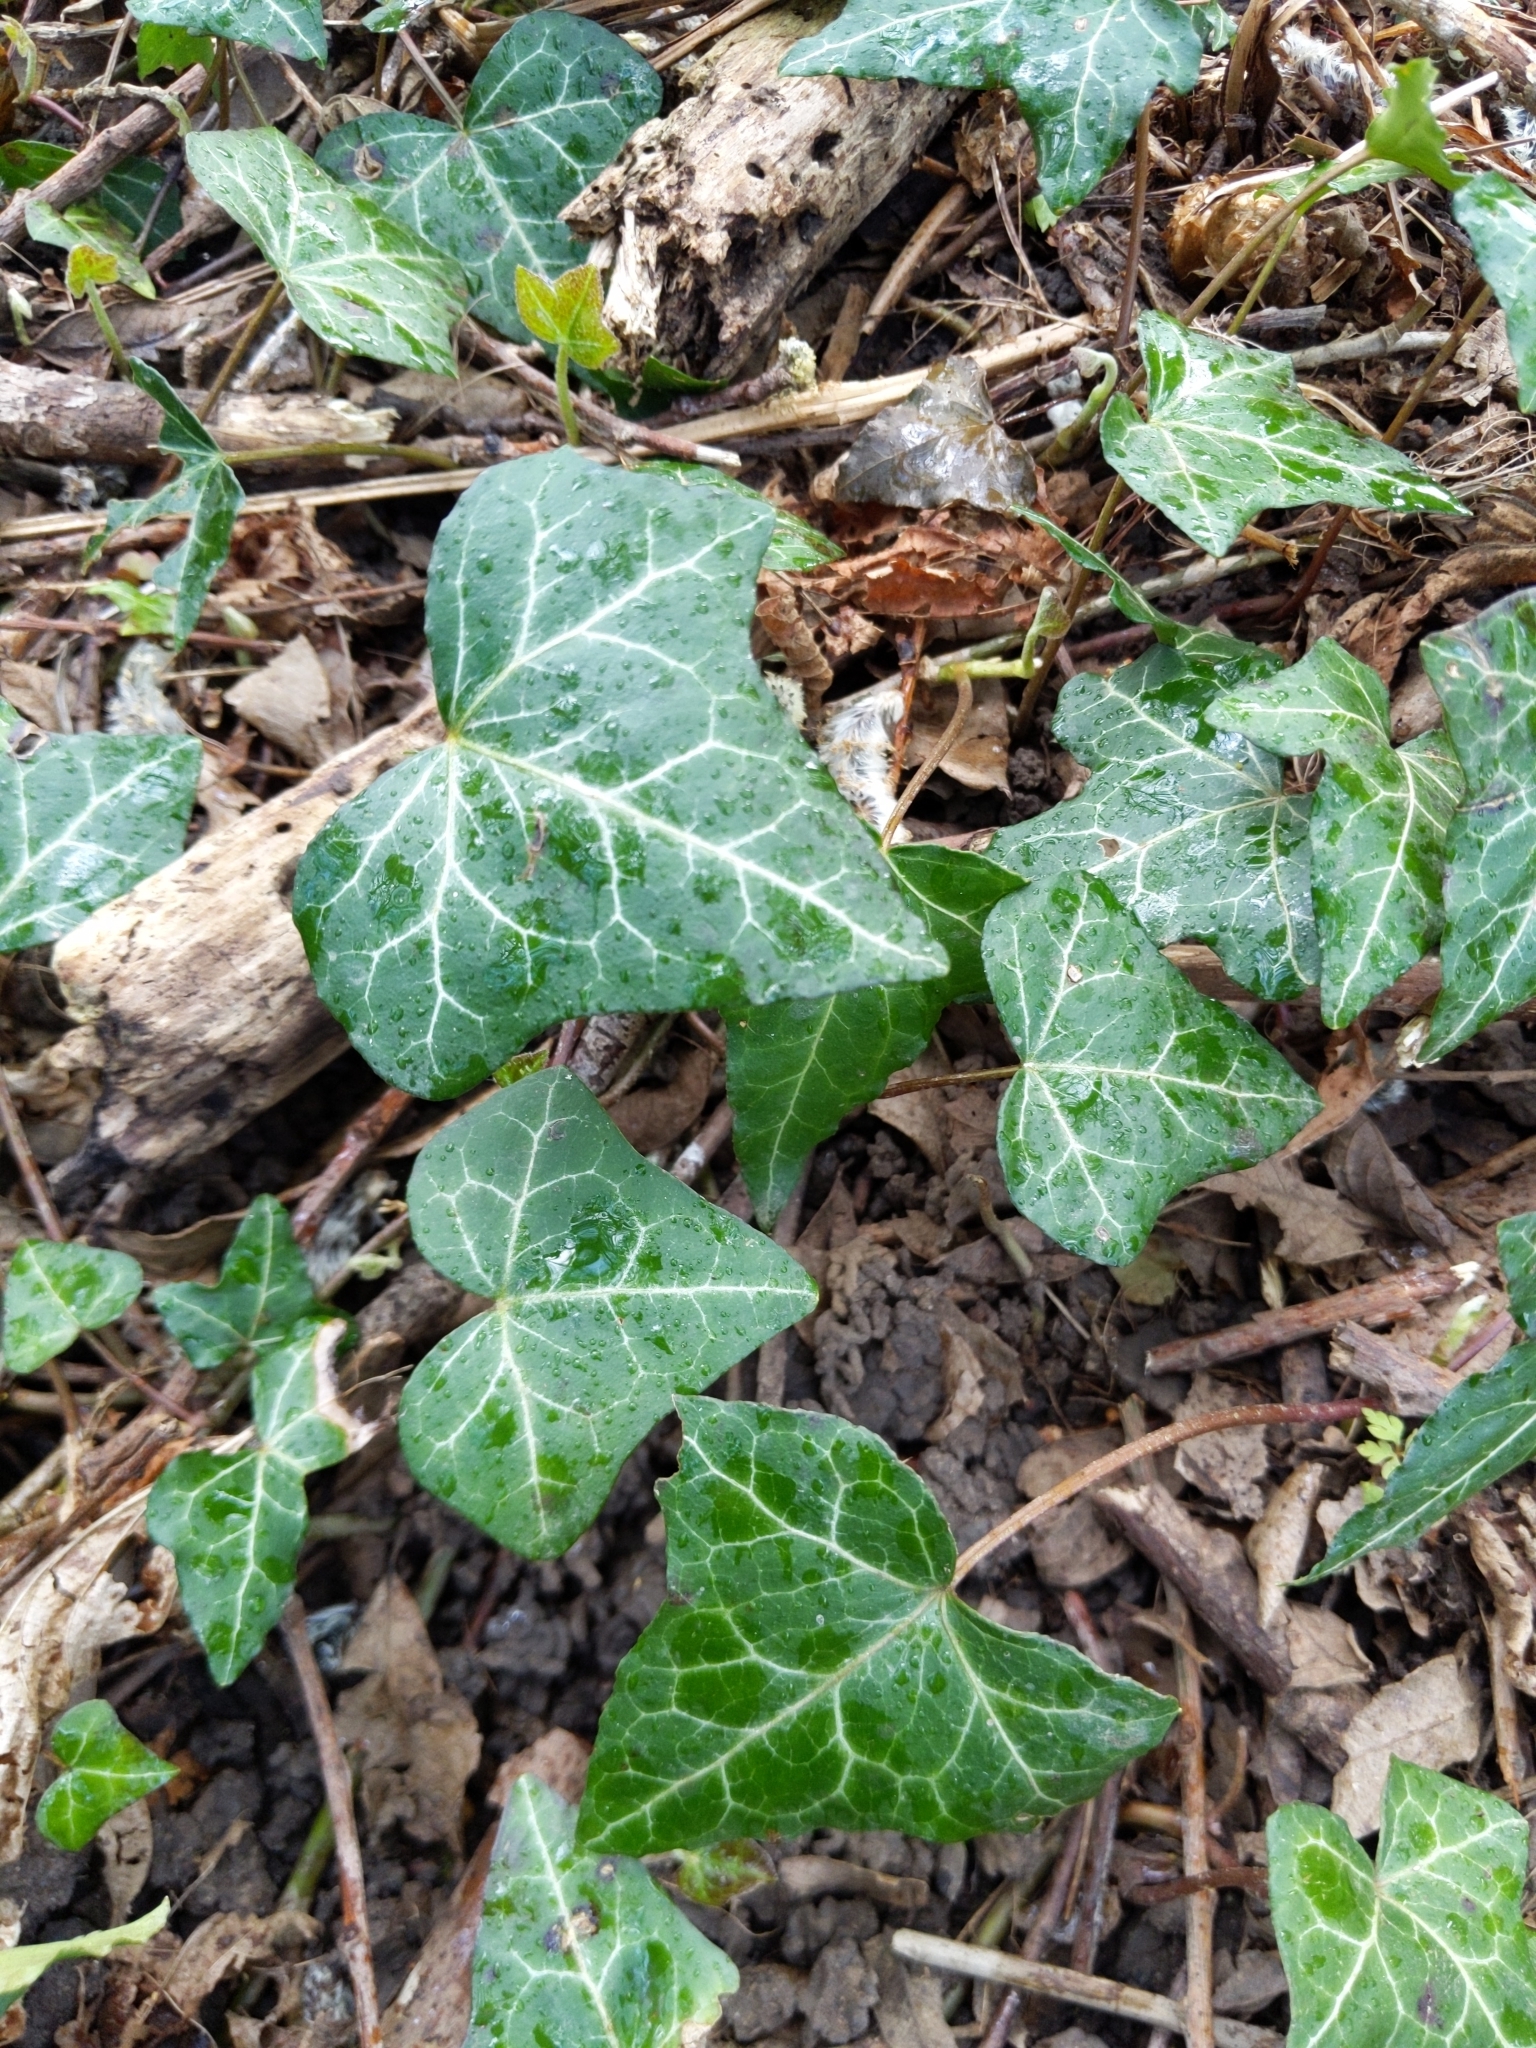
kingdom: Plantae
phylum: Tracheophyta
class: Magnoliopsida
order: Apiales
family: Araliaceae
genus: Hedera
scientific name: Hedera helix
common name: Ivy
